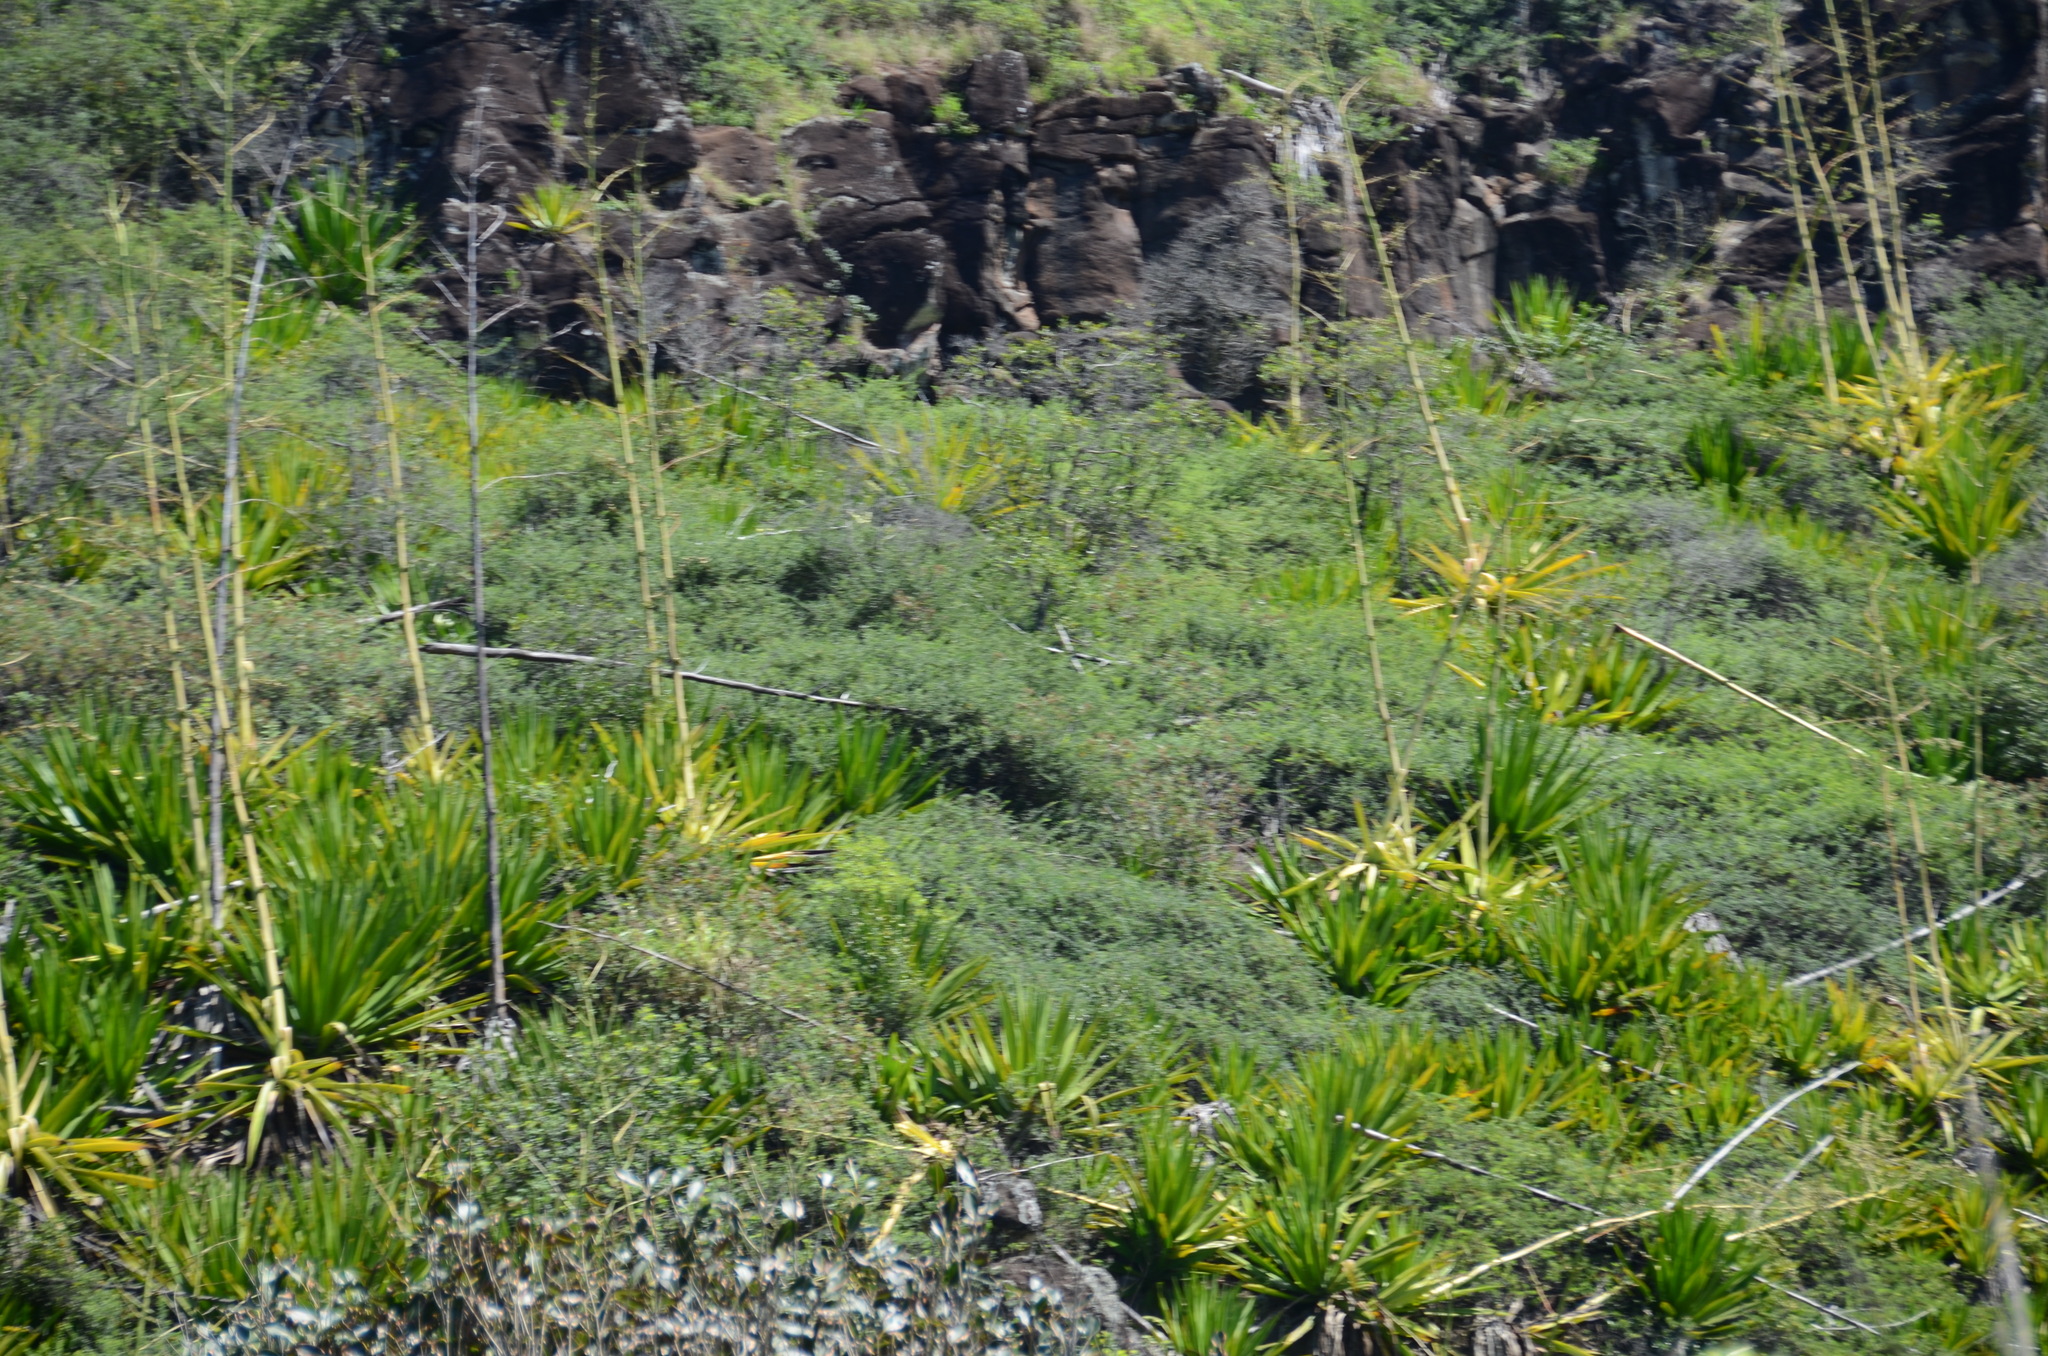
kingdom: Plantae
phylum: Tracheophyta
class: Liliopsida
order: Asparagales
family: Asparagaceae
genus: Furcraea
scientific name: Furcraea foetida
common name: Mauritius hemp
